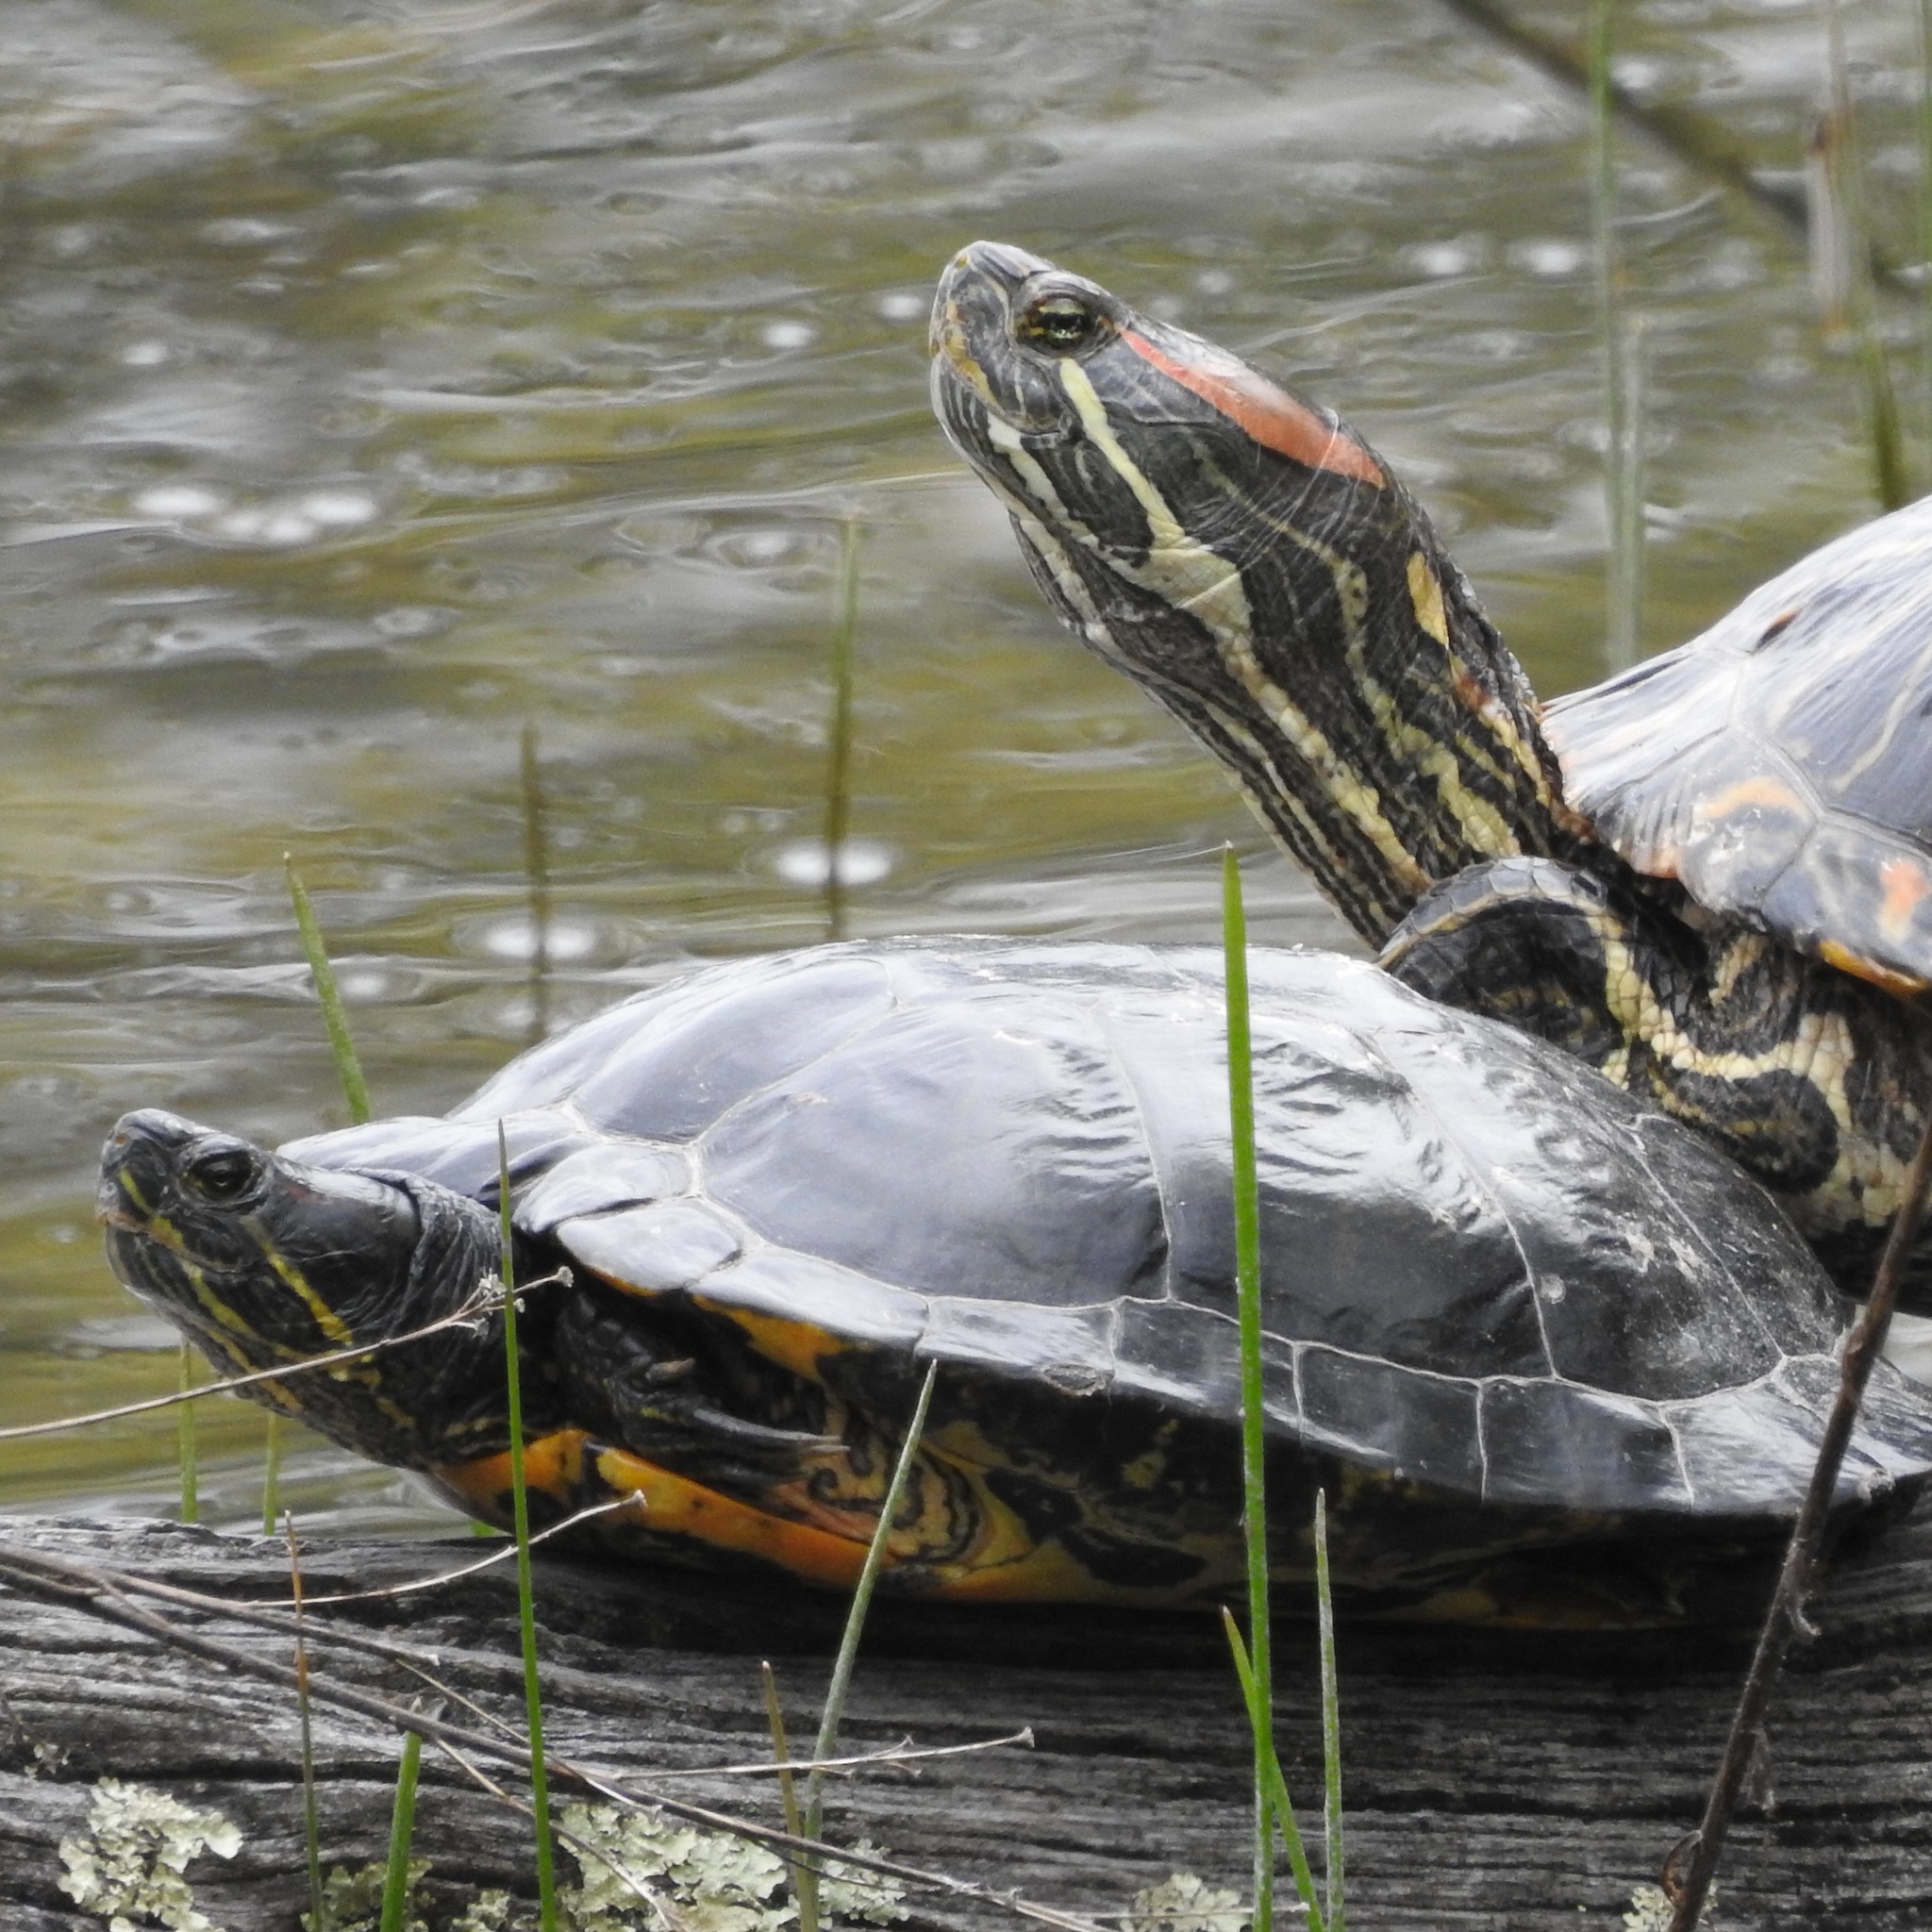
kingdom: Animalia
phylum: Chordata
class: Testudines
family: Emydidae
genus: Trachemys
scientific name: Trachemys scripta
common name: Slider
